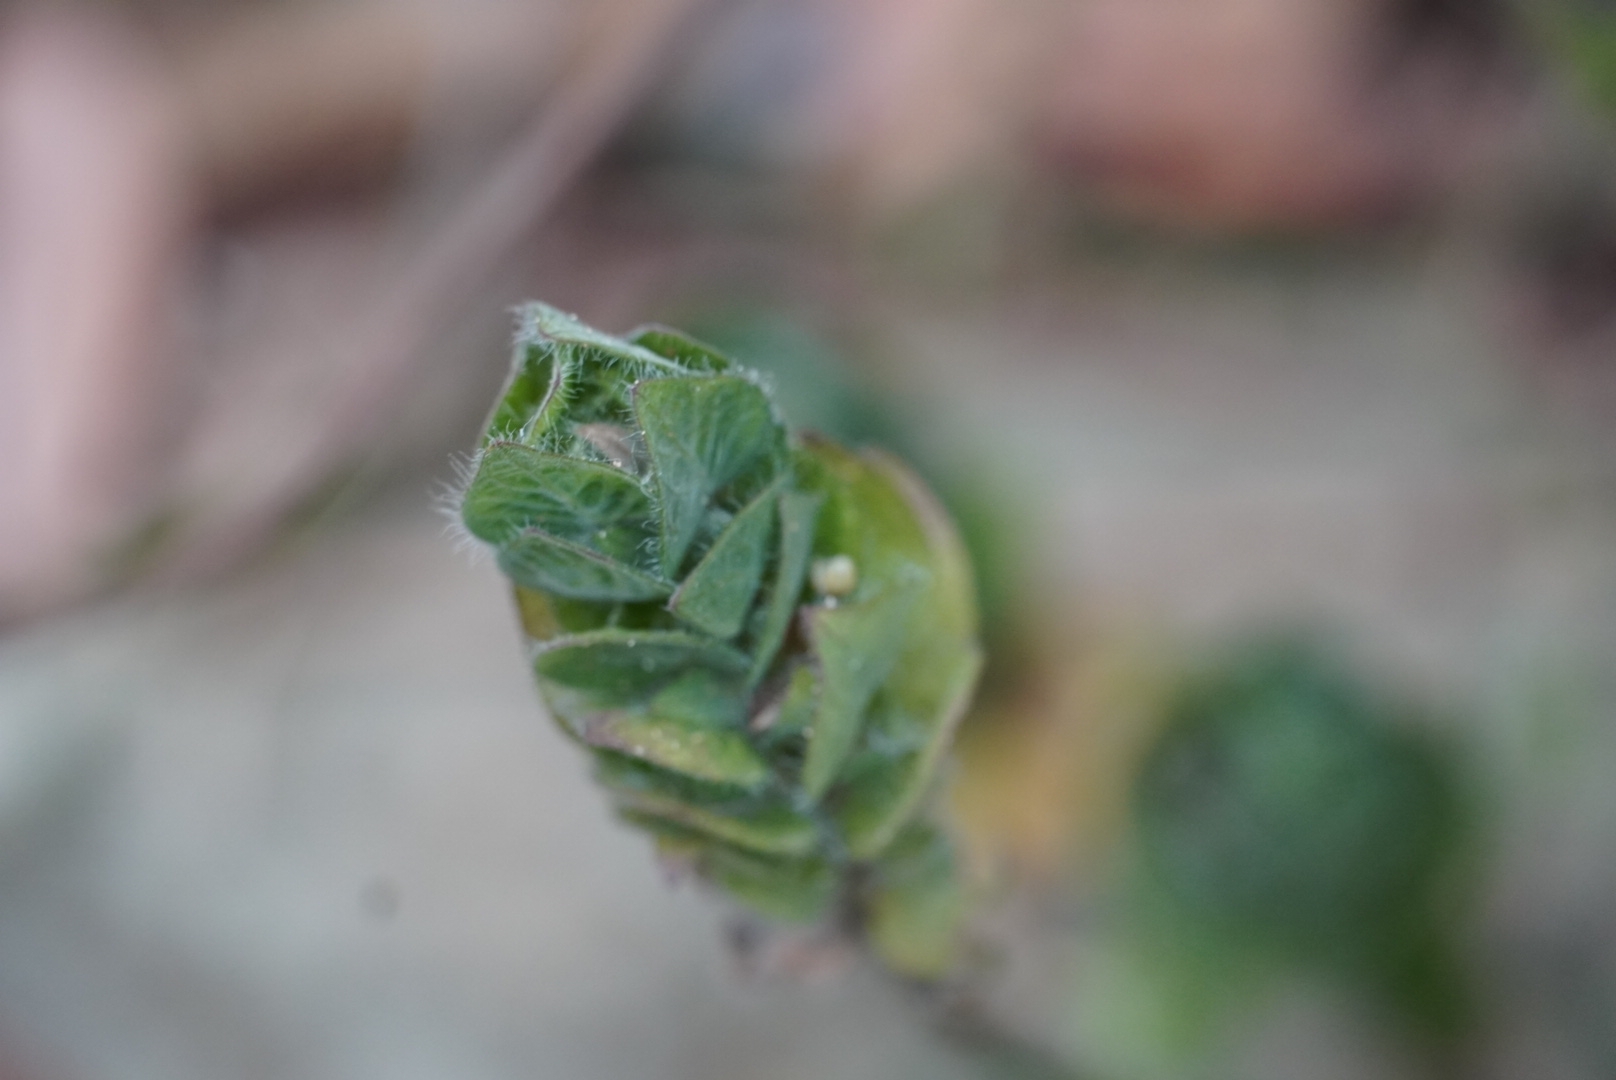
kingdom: Plantae
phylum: Tracheophyta
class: Magnoliopsida
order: Lamiales
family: Acanthaceae
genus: Ruellia
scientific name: Ruellia blechum
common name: Browne's blechum
